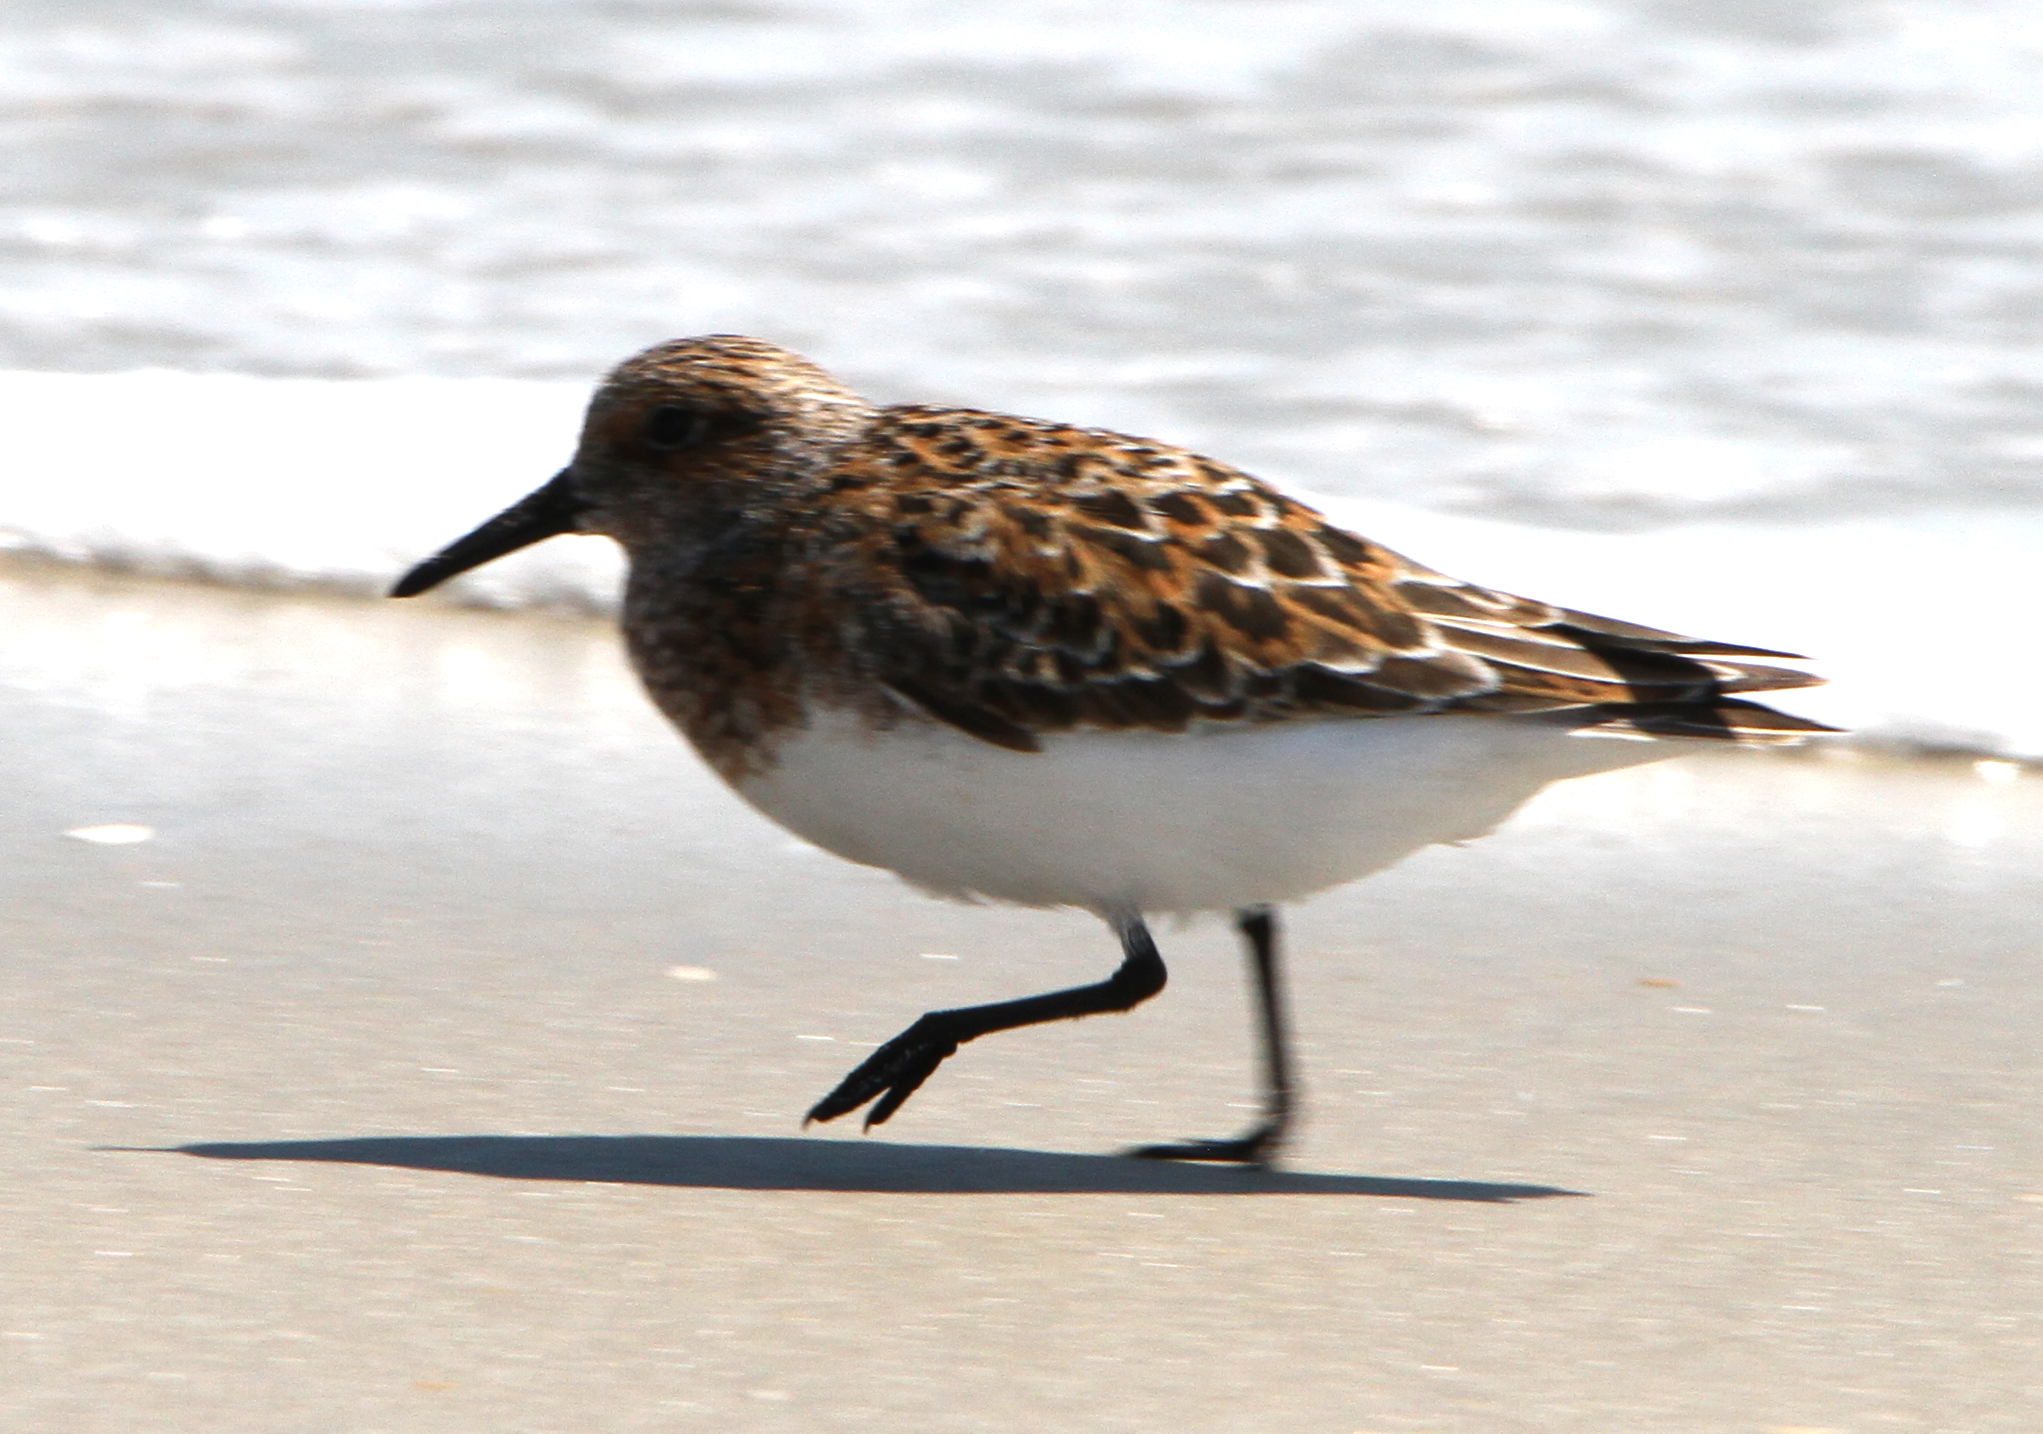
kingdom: Animalia
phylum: Chordata
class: Aves
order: Charadriiformes
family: Scolopacidae
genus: Calidris
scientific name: Calidris alba
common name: Sanderling
